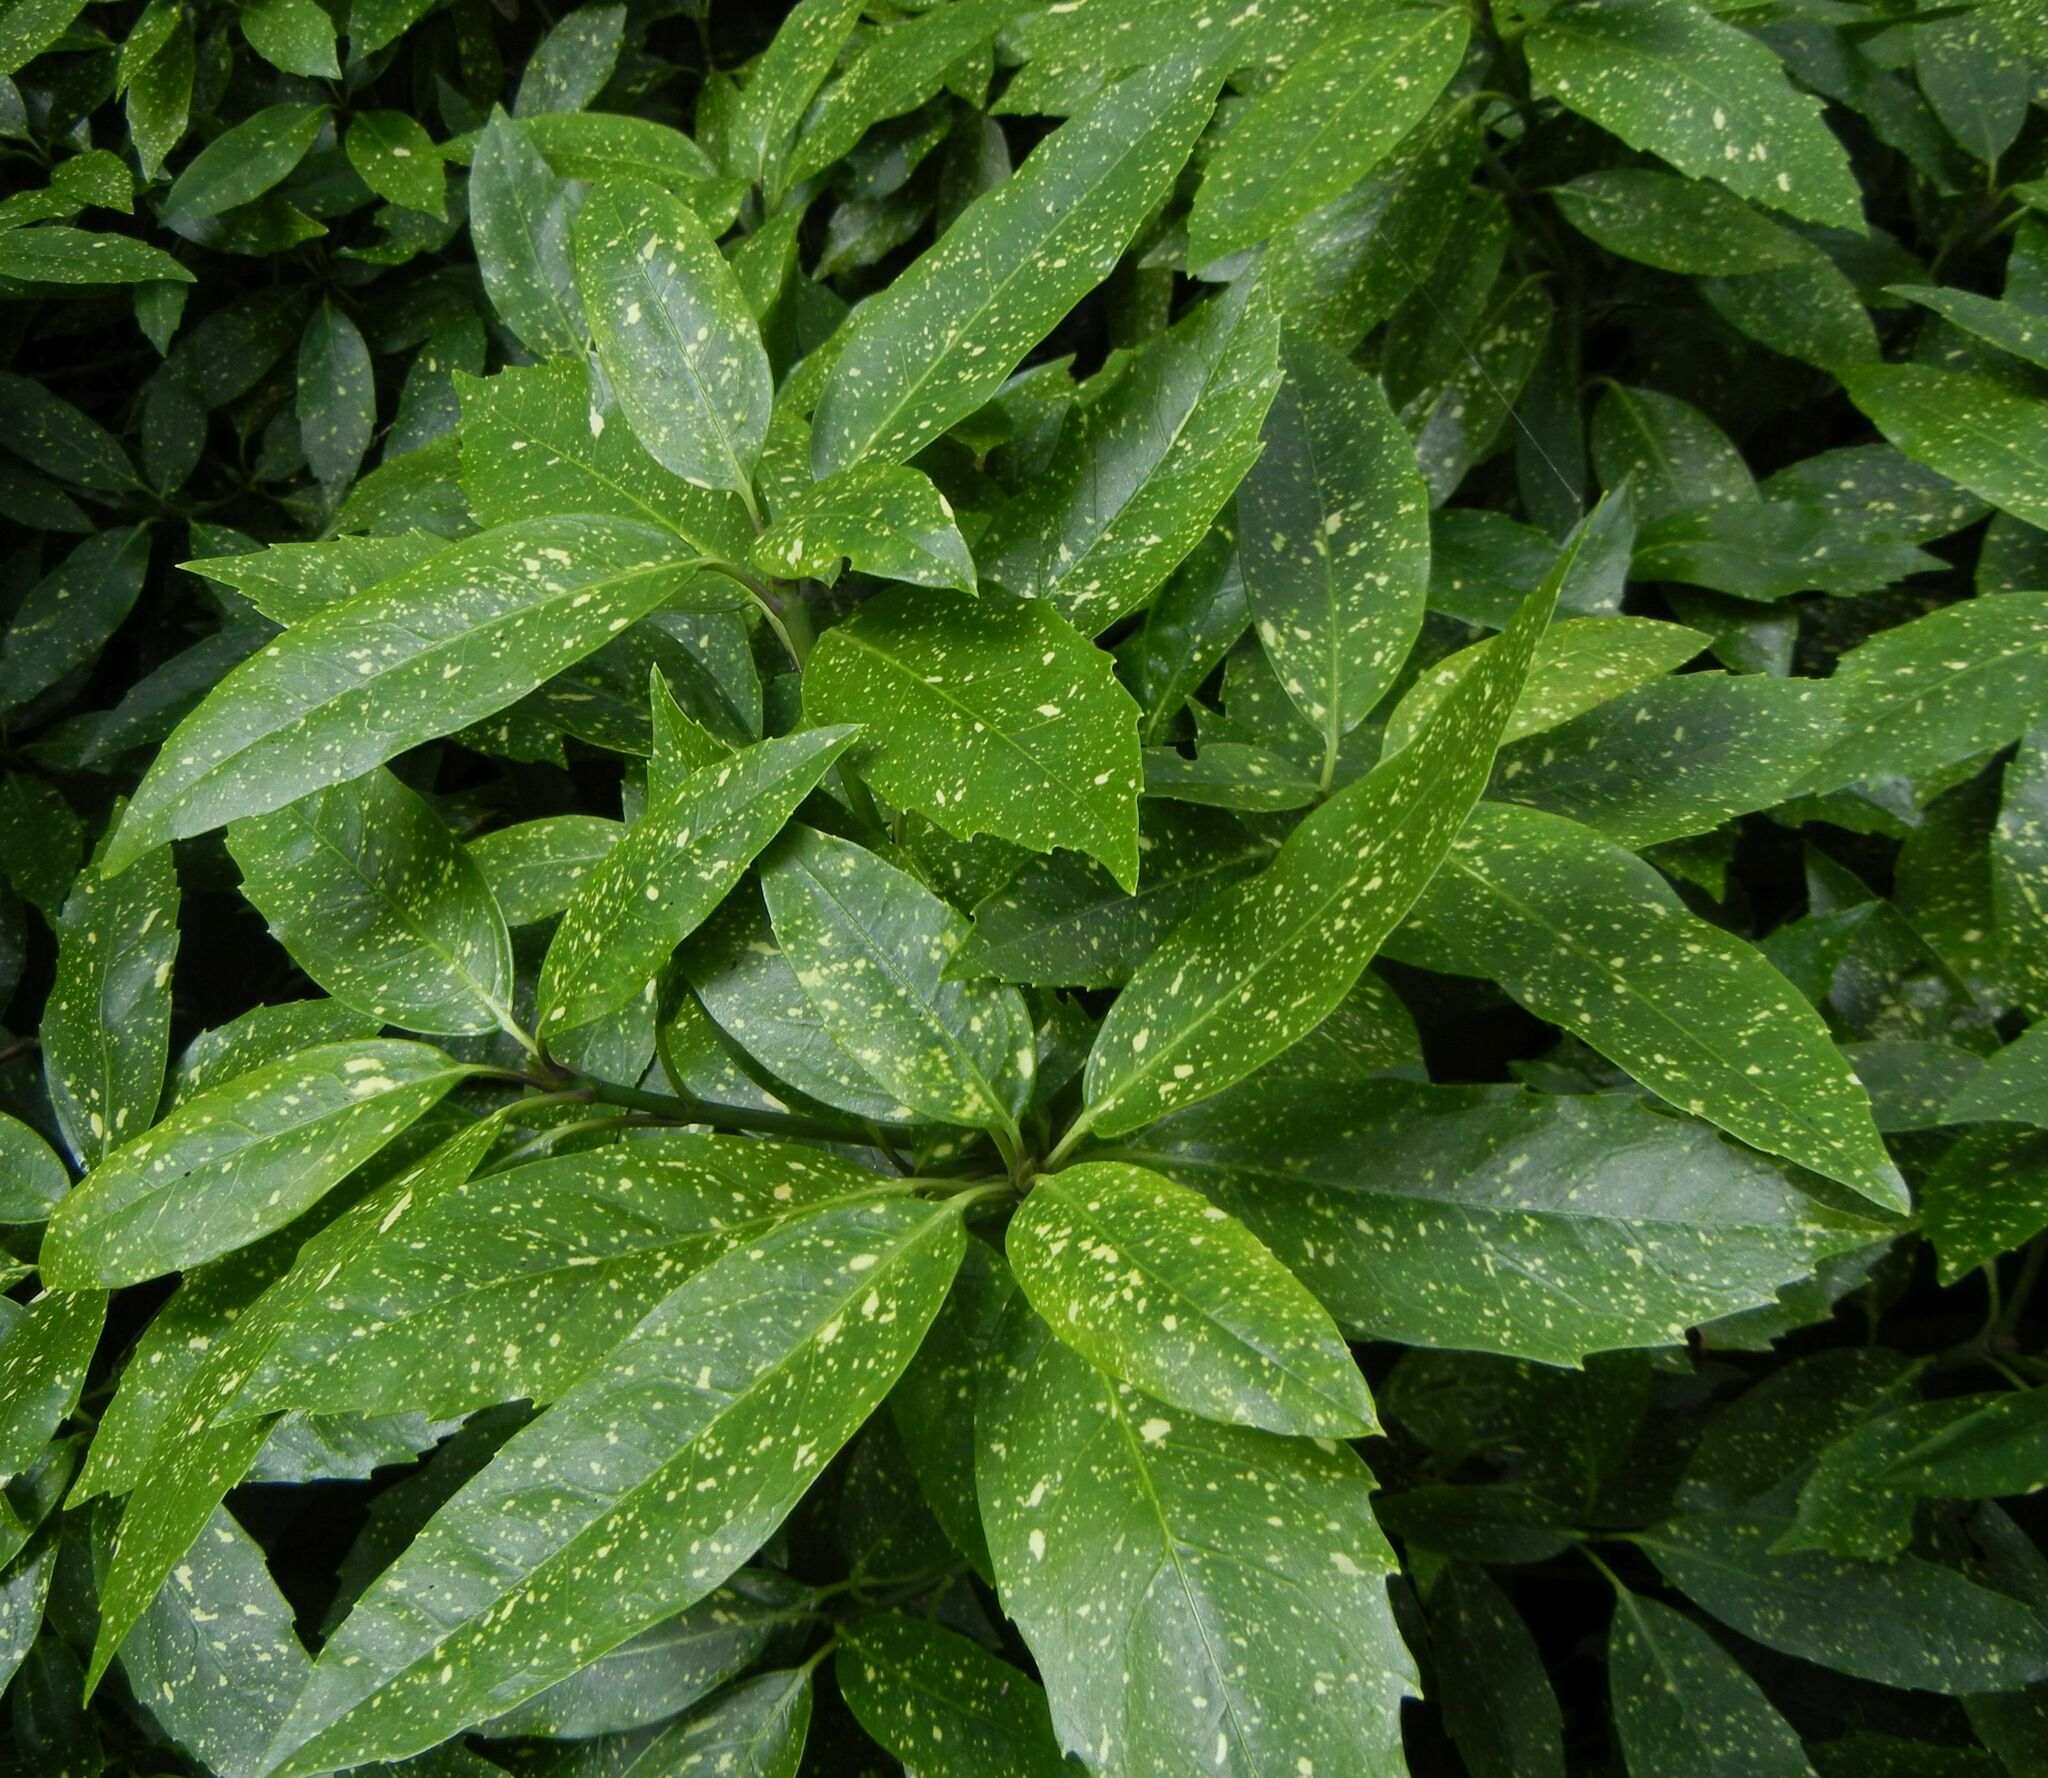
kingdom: Plantae
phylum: Tracheophyta
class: Magnoliopsida
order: Garryales
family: Garryaceae
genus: Aucuba
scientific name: Aucuba japonica
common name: Spotted-laurel
